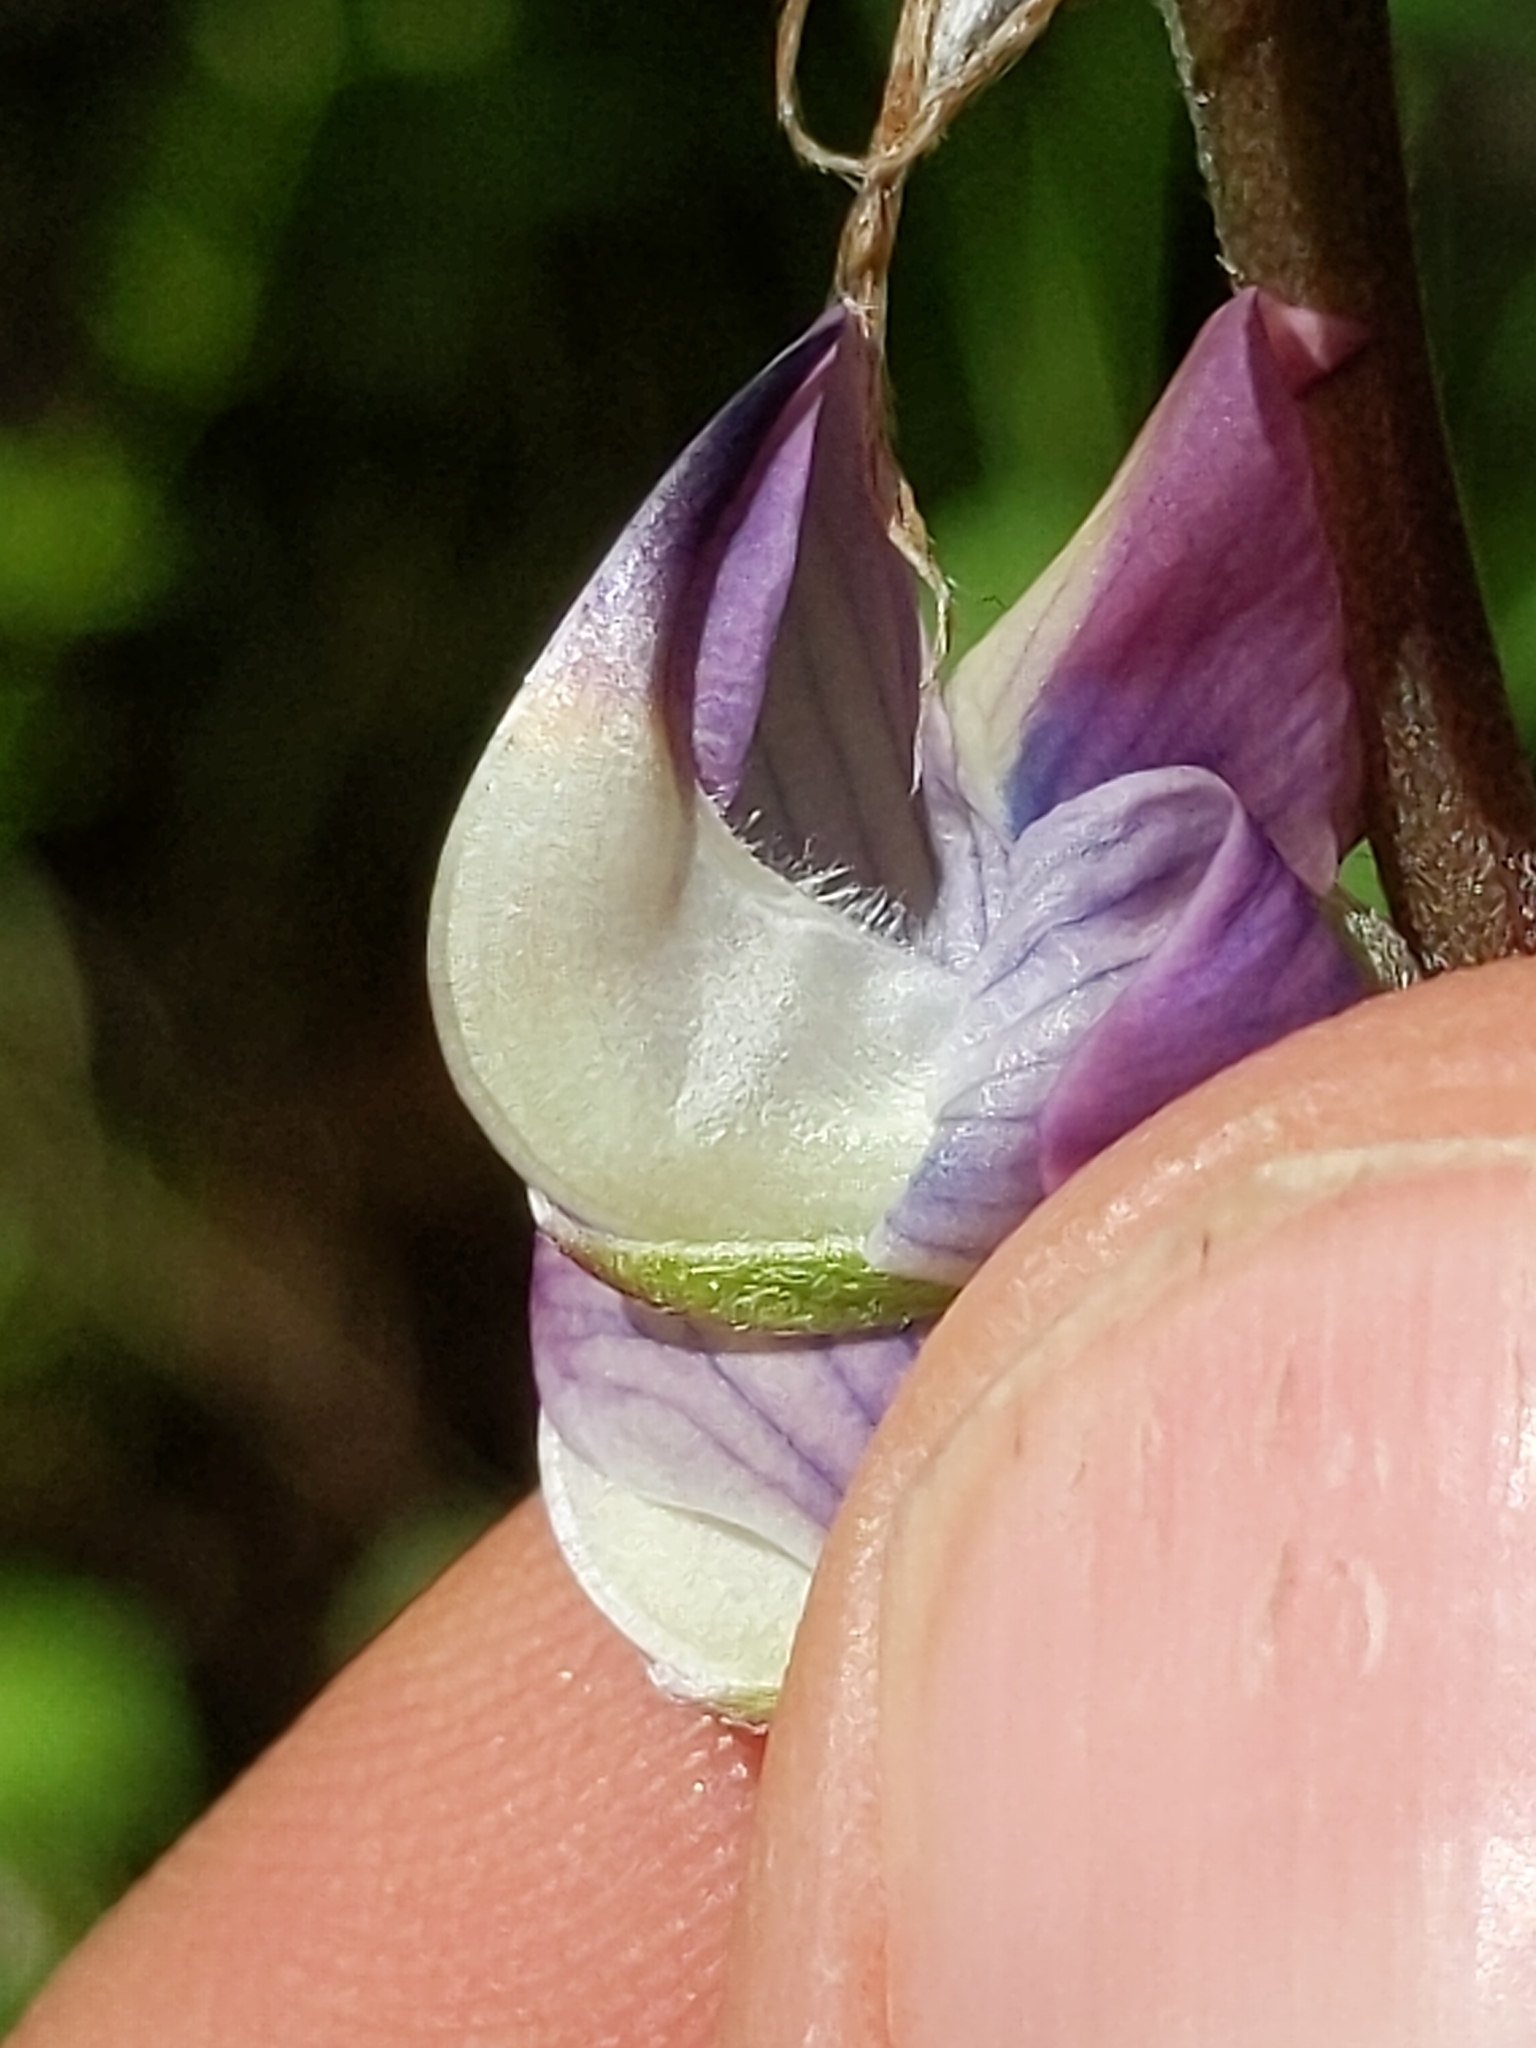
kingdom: Plantae
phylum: Tracheophyta
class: Magnoliopsida
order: Fabales
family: Fabaceae
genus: Lupinus
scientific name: Lupinus latifolius
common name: Broad-leaved lupine
